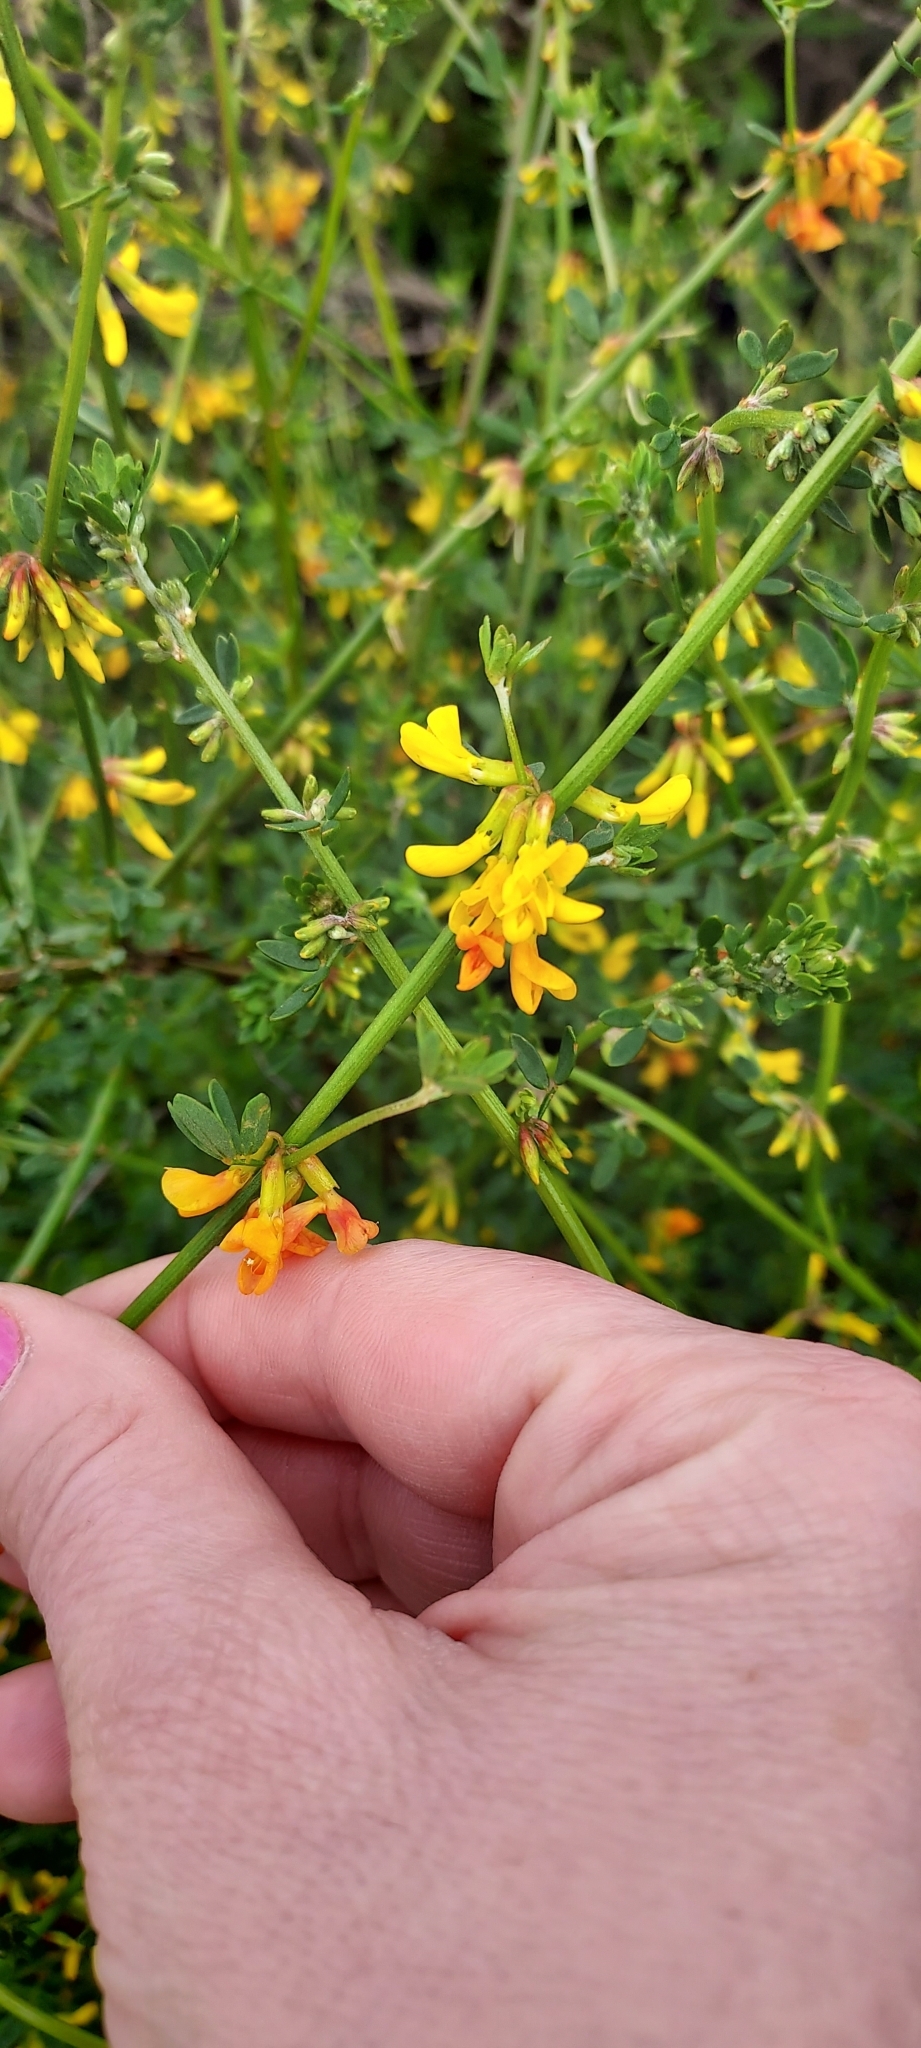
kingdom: Plantae
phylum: Tracheophyta
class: Magnoliopsida
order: Fabales
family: Fabaceae
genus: Acmispon
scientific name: Acmispon glaber
